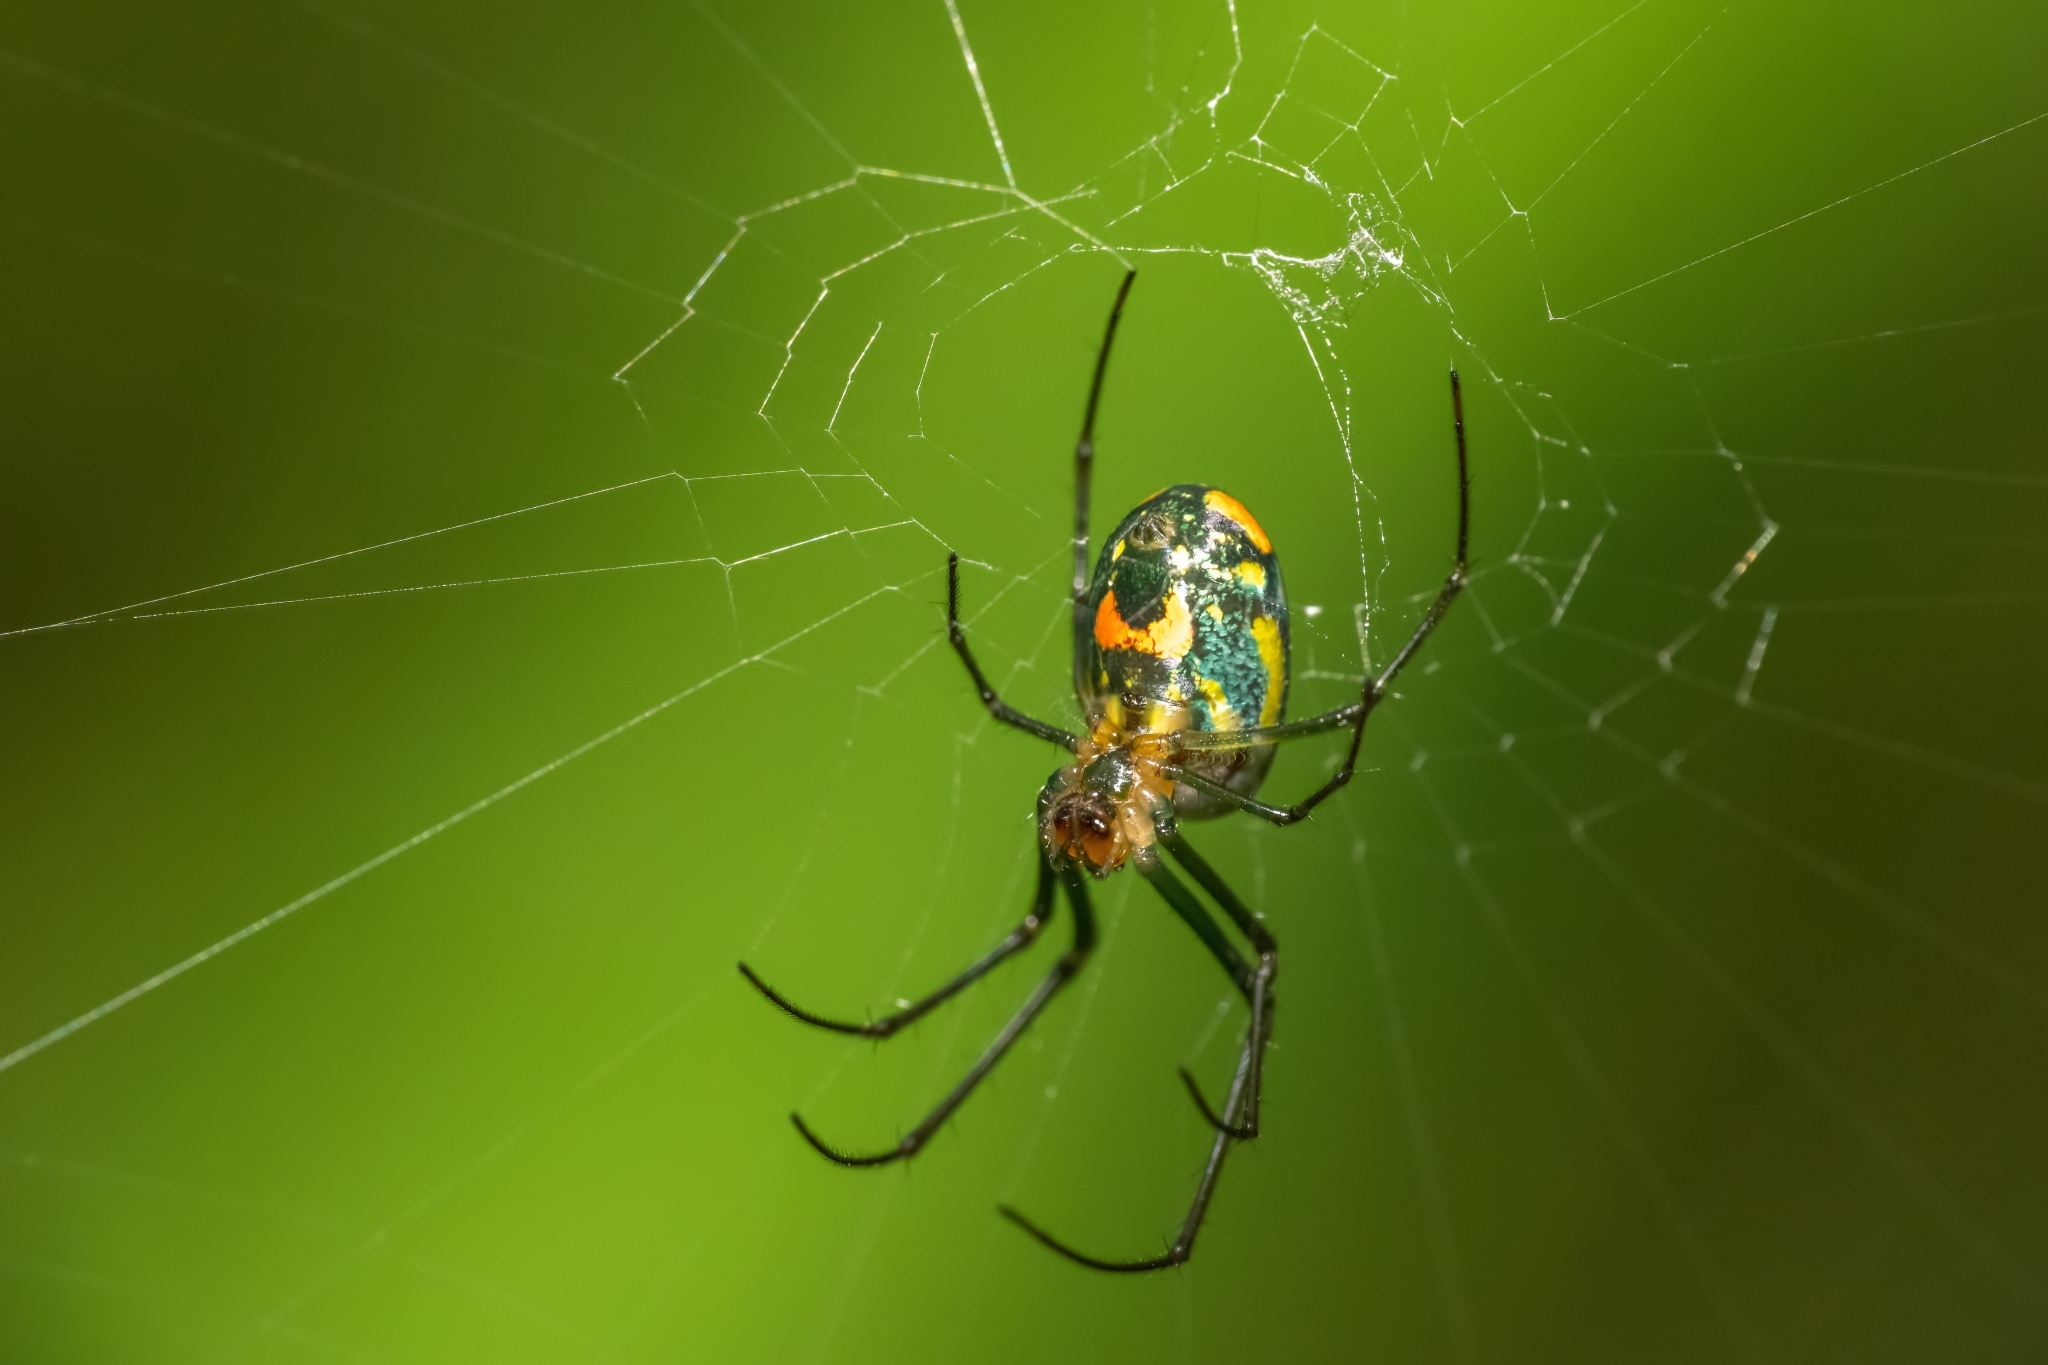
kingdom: Animalia
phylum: Arthropoda
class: Arachnida
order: Araneae
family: Tetragnathidae
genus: Leucauge
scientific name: Leucauge argyrobapta
